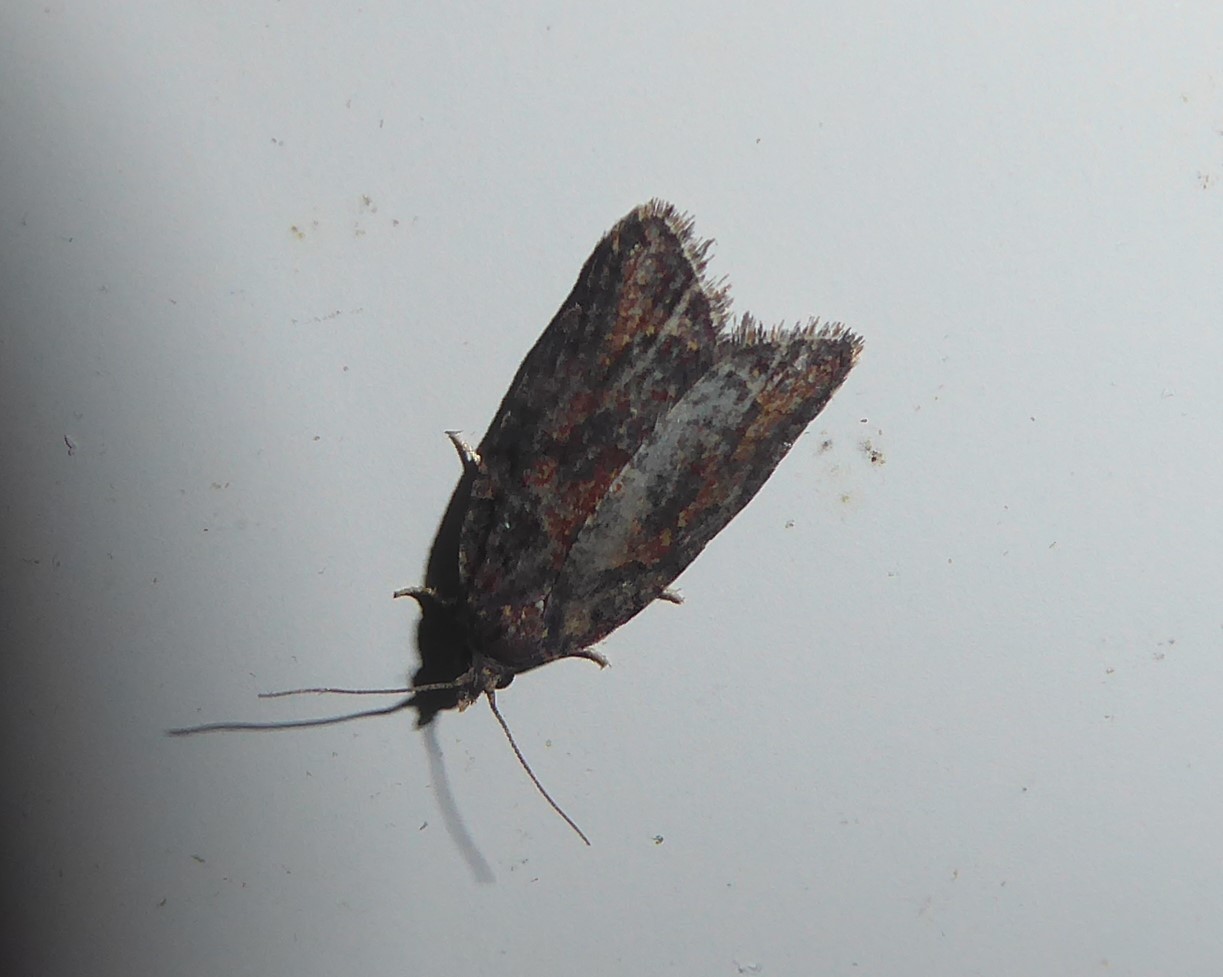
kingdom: Animalia
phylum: Arthropoda
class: Insecta
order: Lepidoptera
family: Tortricidae
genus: Capua
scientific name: Capua intractana
